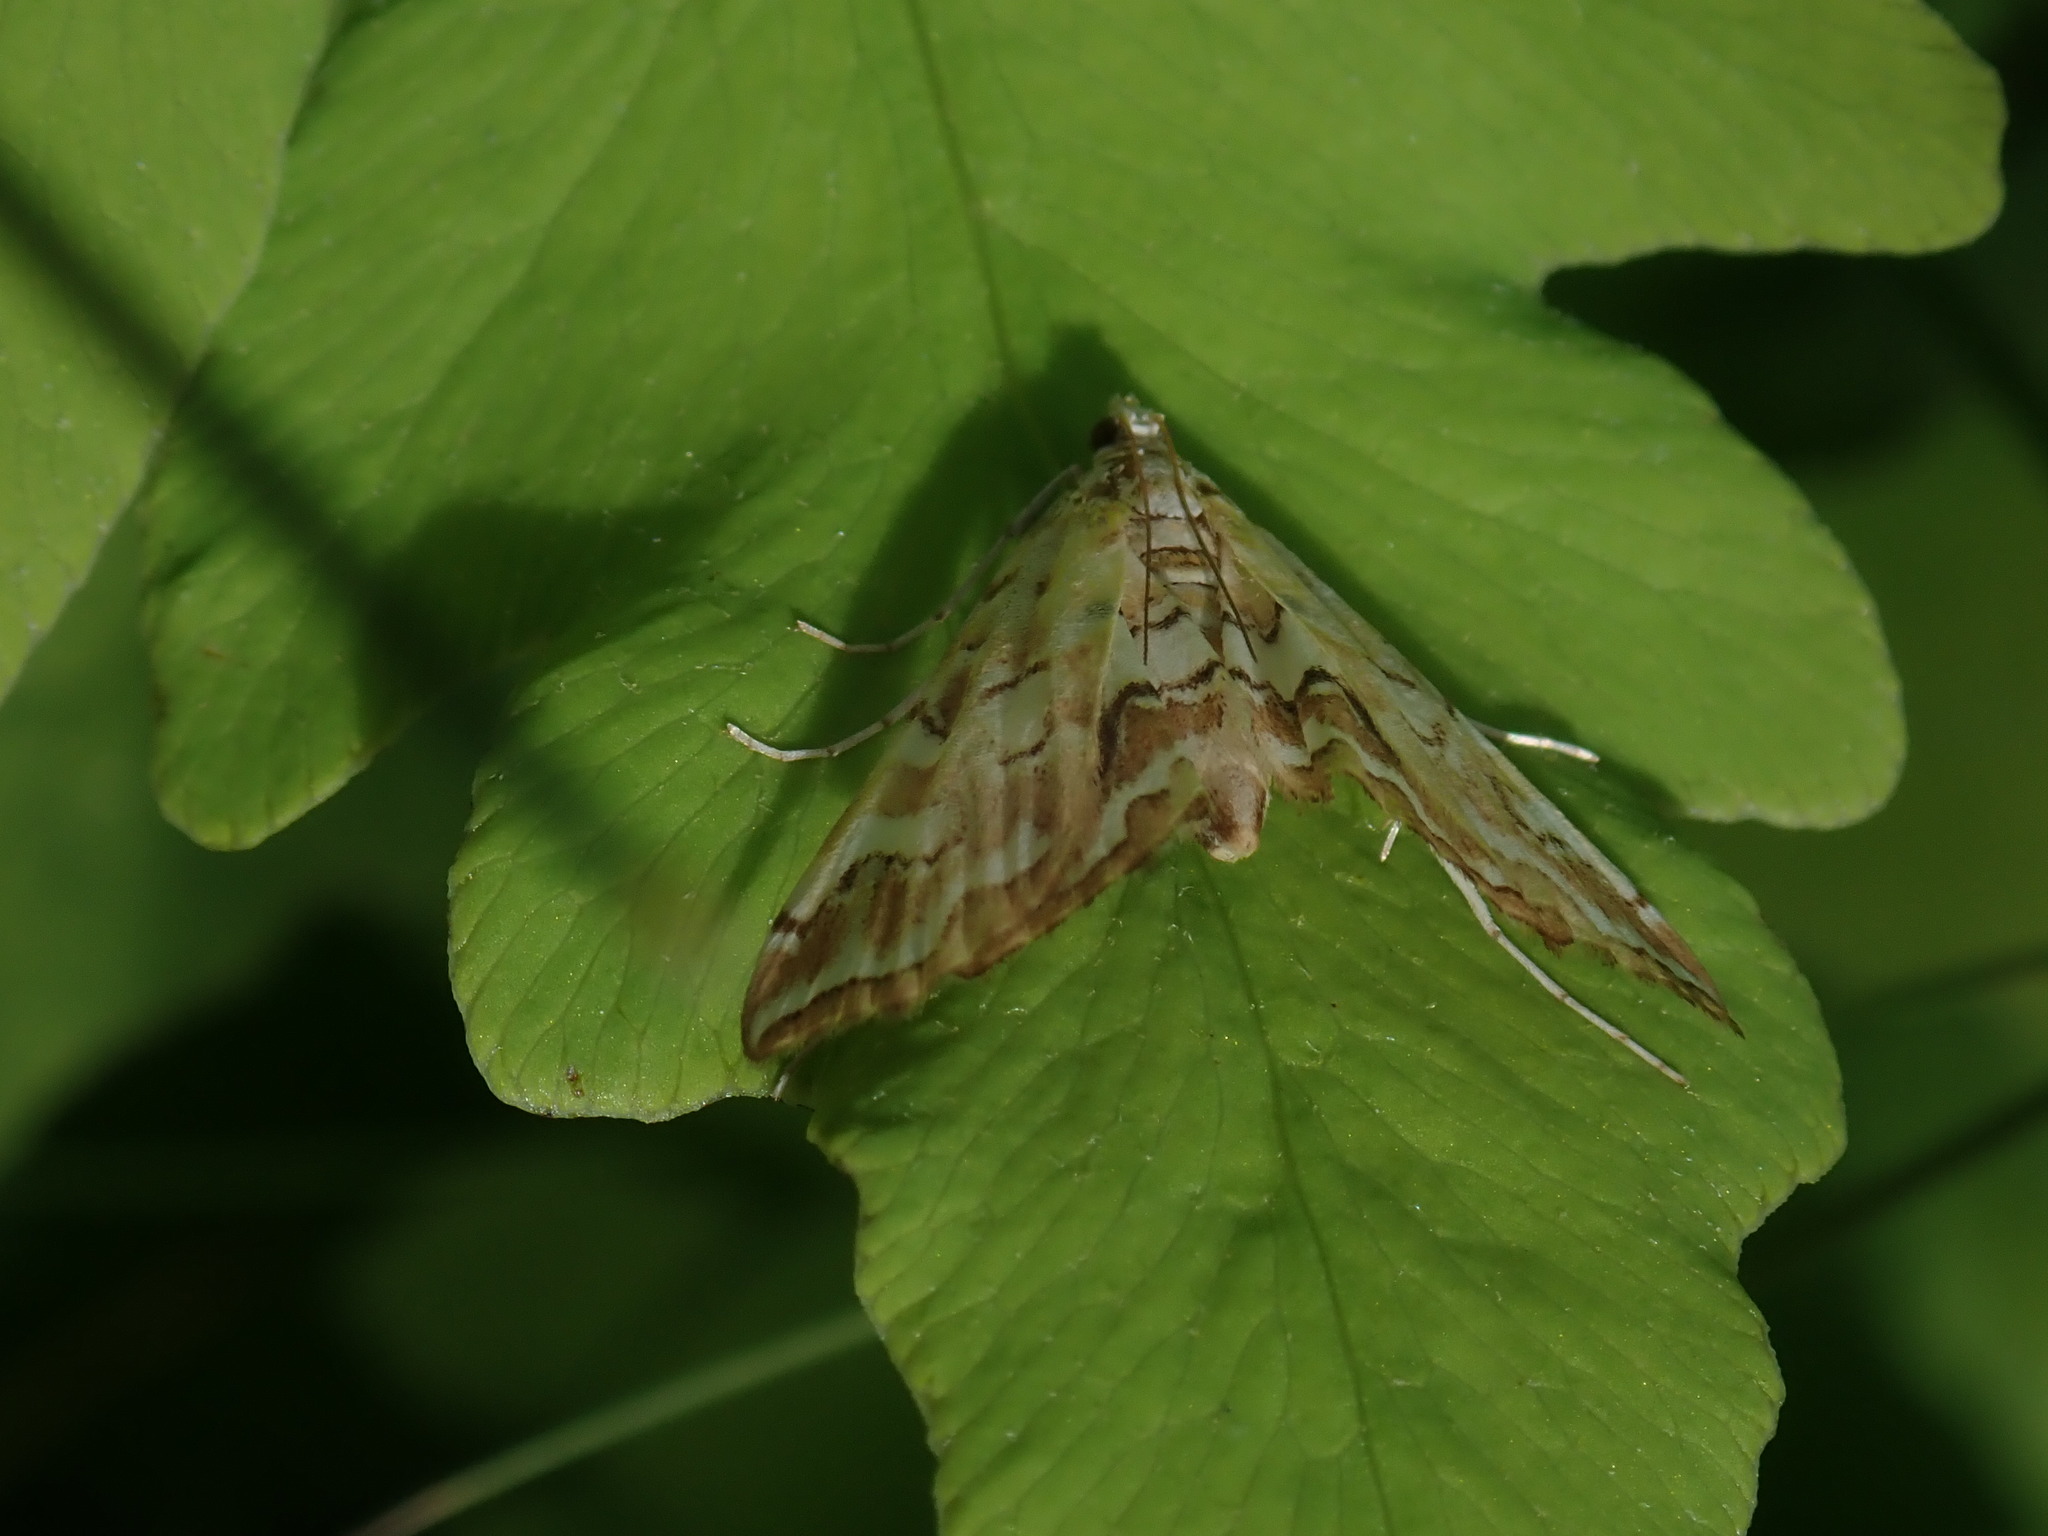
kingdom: Animalia
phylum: Arthropoda
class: Insecta
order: Lepidoptera
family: Crambidae
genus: Elophila
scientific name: Elophila icciusalis
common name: Pondside pyralid moth
